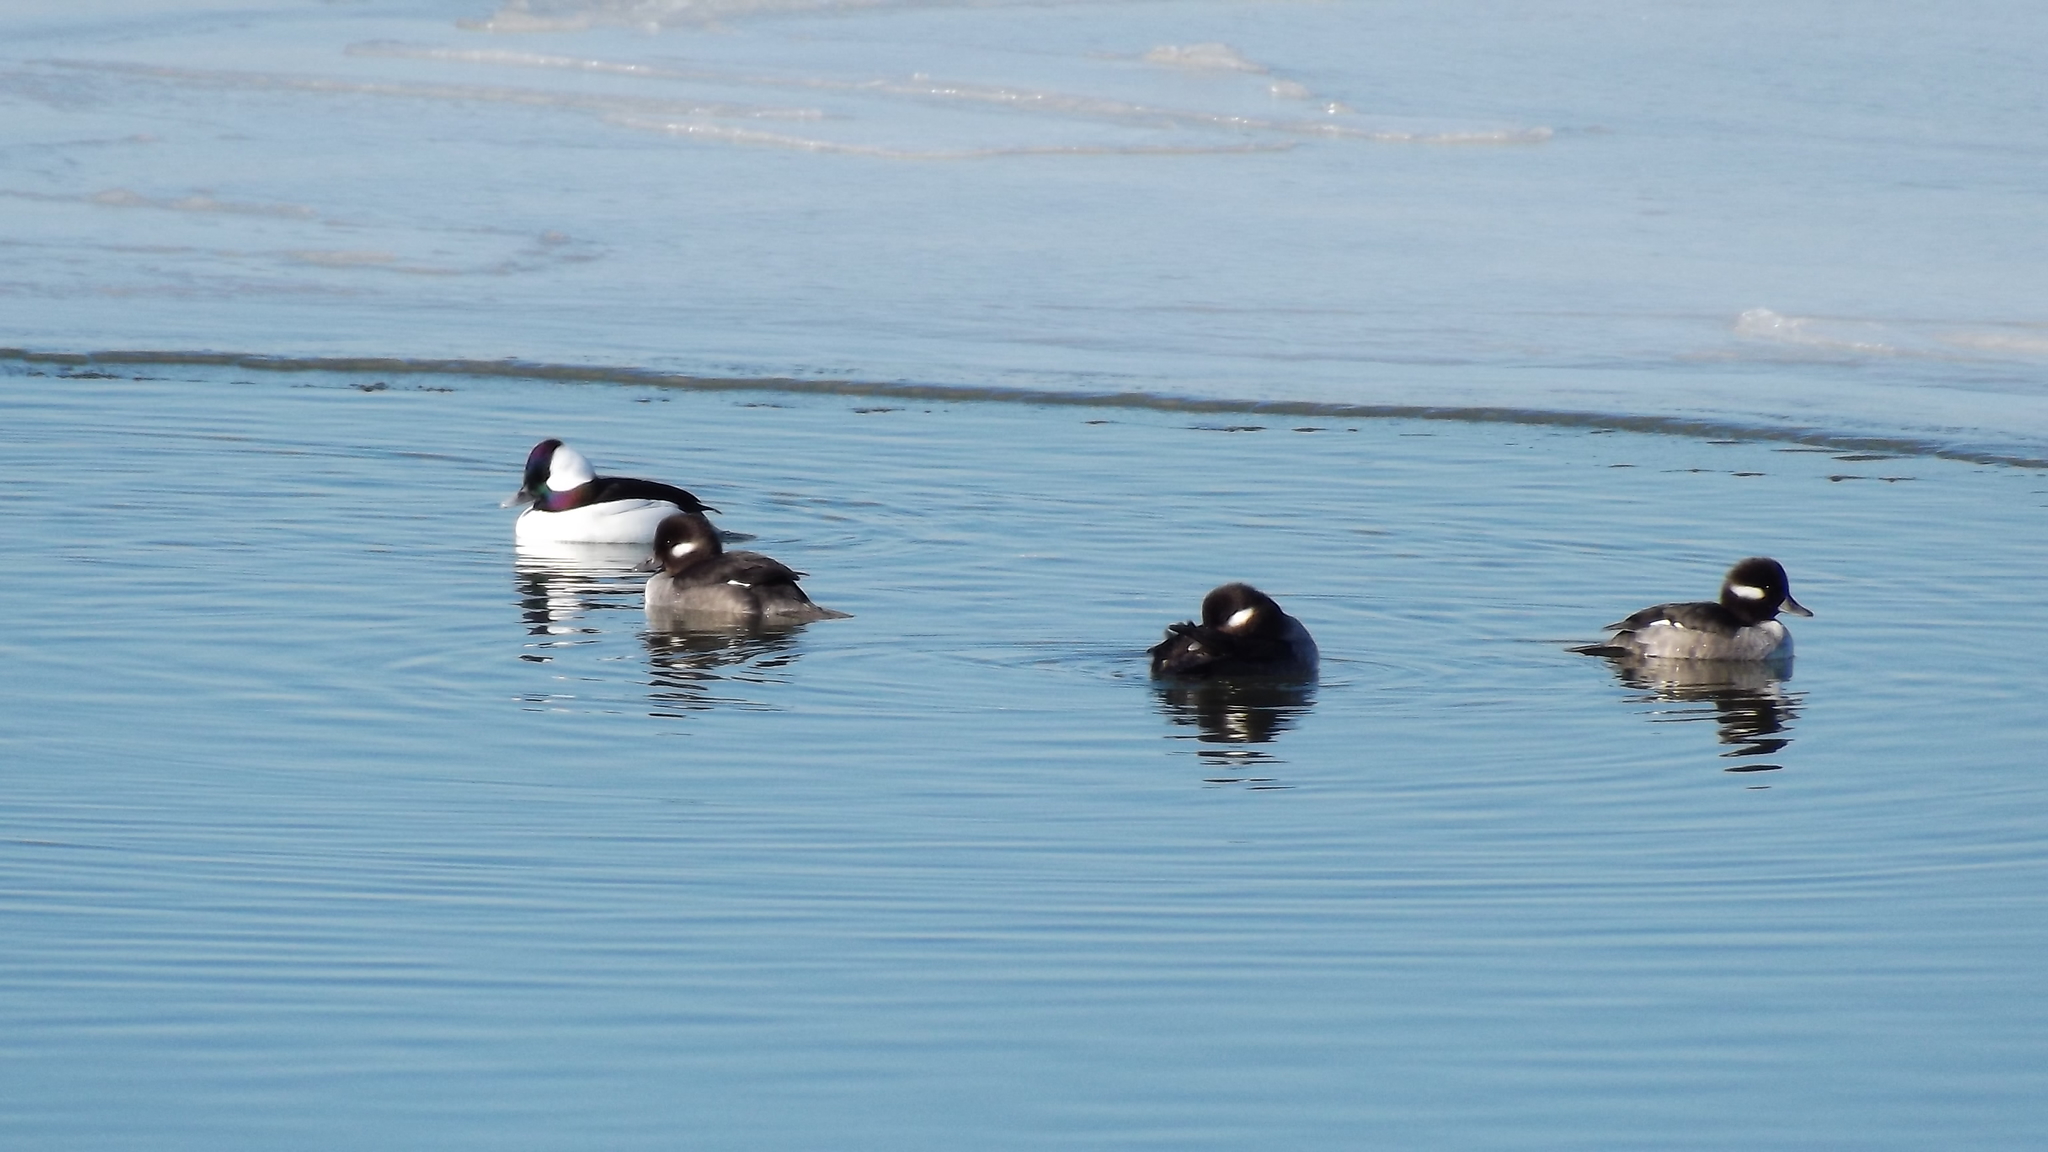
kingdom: Animalia
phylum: Chordata
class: Aves
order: Anseriformes
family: Anatidae
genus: Bucephala
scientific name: Bucephala albeola
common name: Bufflehead
